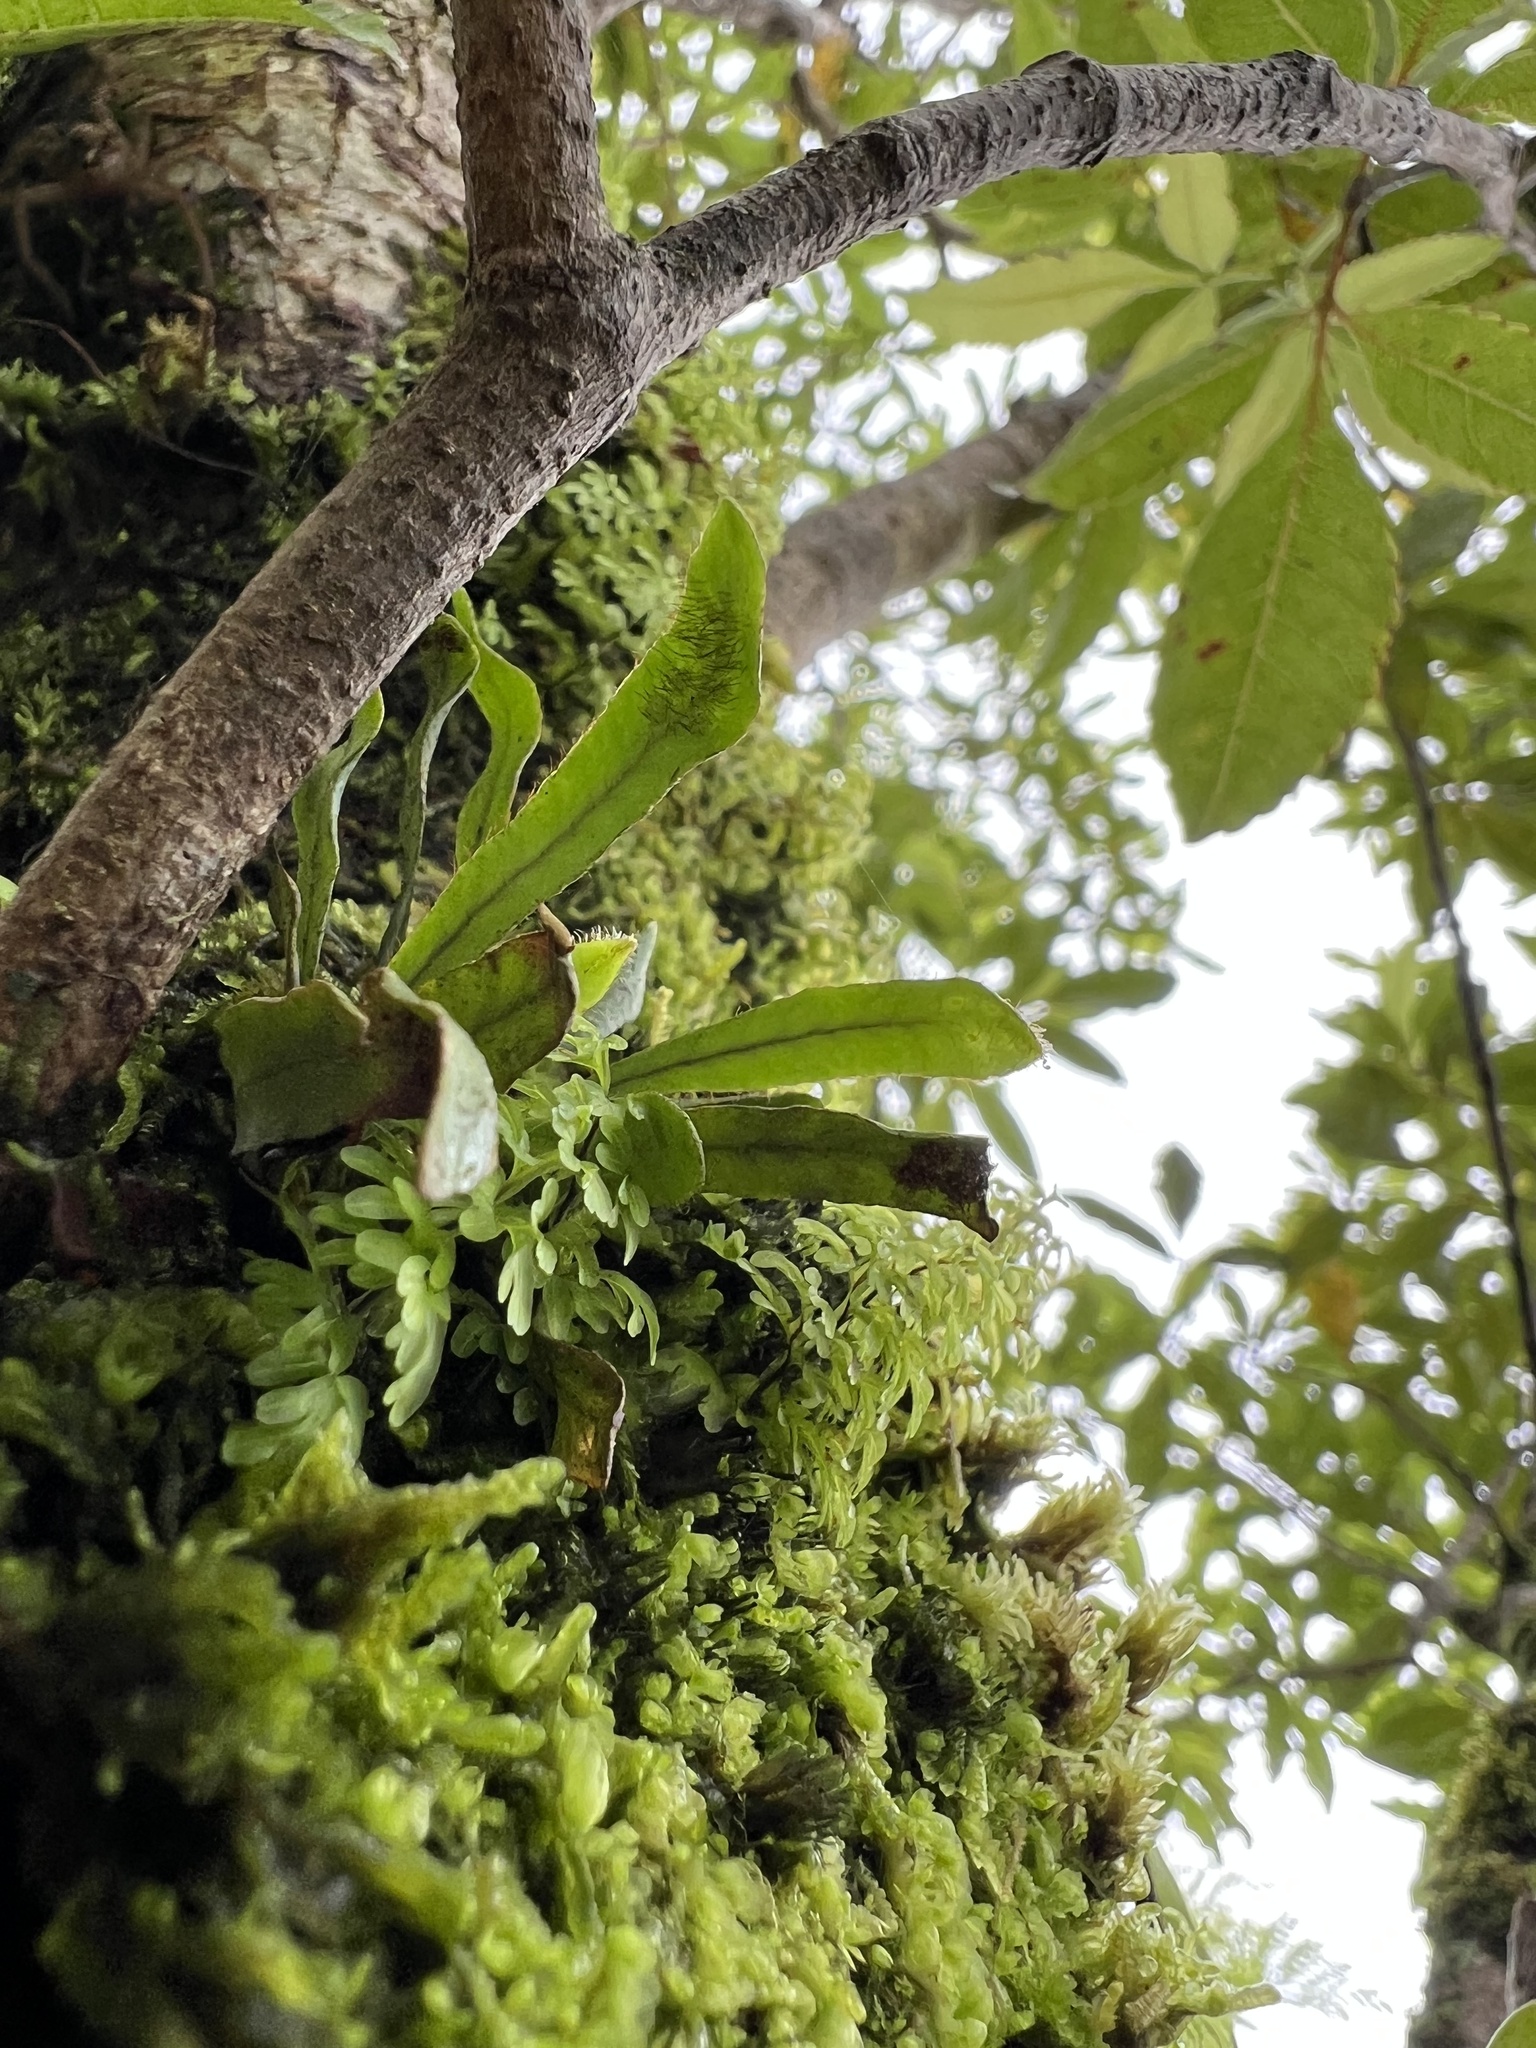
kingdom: Plantae
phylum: Tracheophyta
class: Polypodiopsida
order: Polypodiales
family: Polypodiaceae
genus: Oreogrammitis
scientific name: Oreogrammitis cheesemanii
